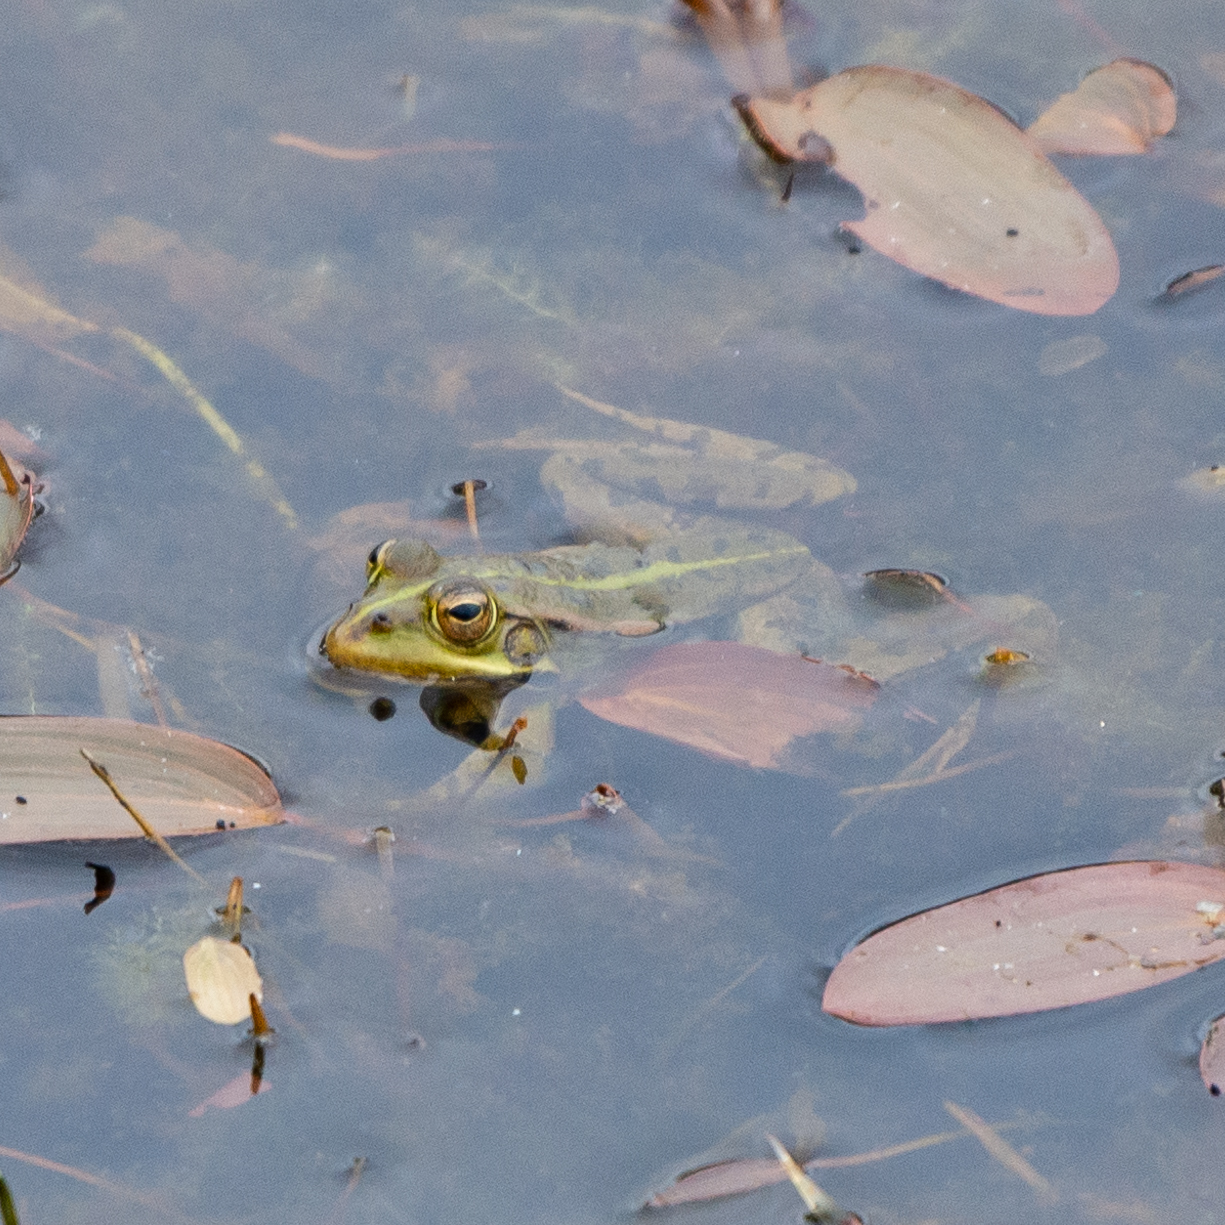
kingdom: Animalia
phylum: Chordata
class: Amphibia
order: Anura
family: Ranidae
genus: Pelophylax
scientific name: Pelophylax perezi
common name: Perez's frog
